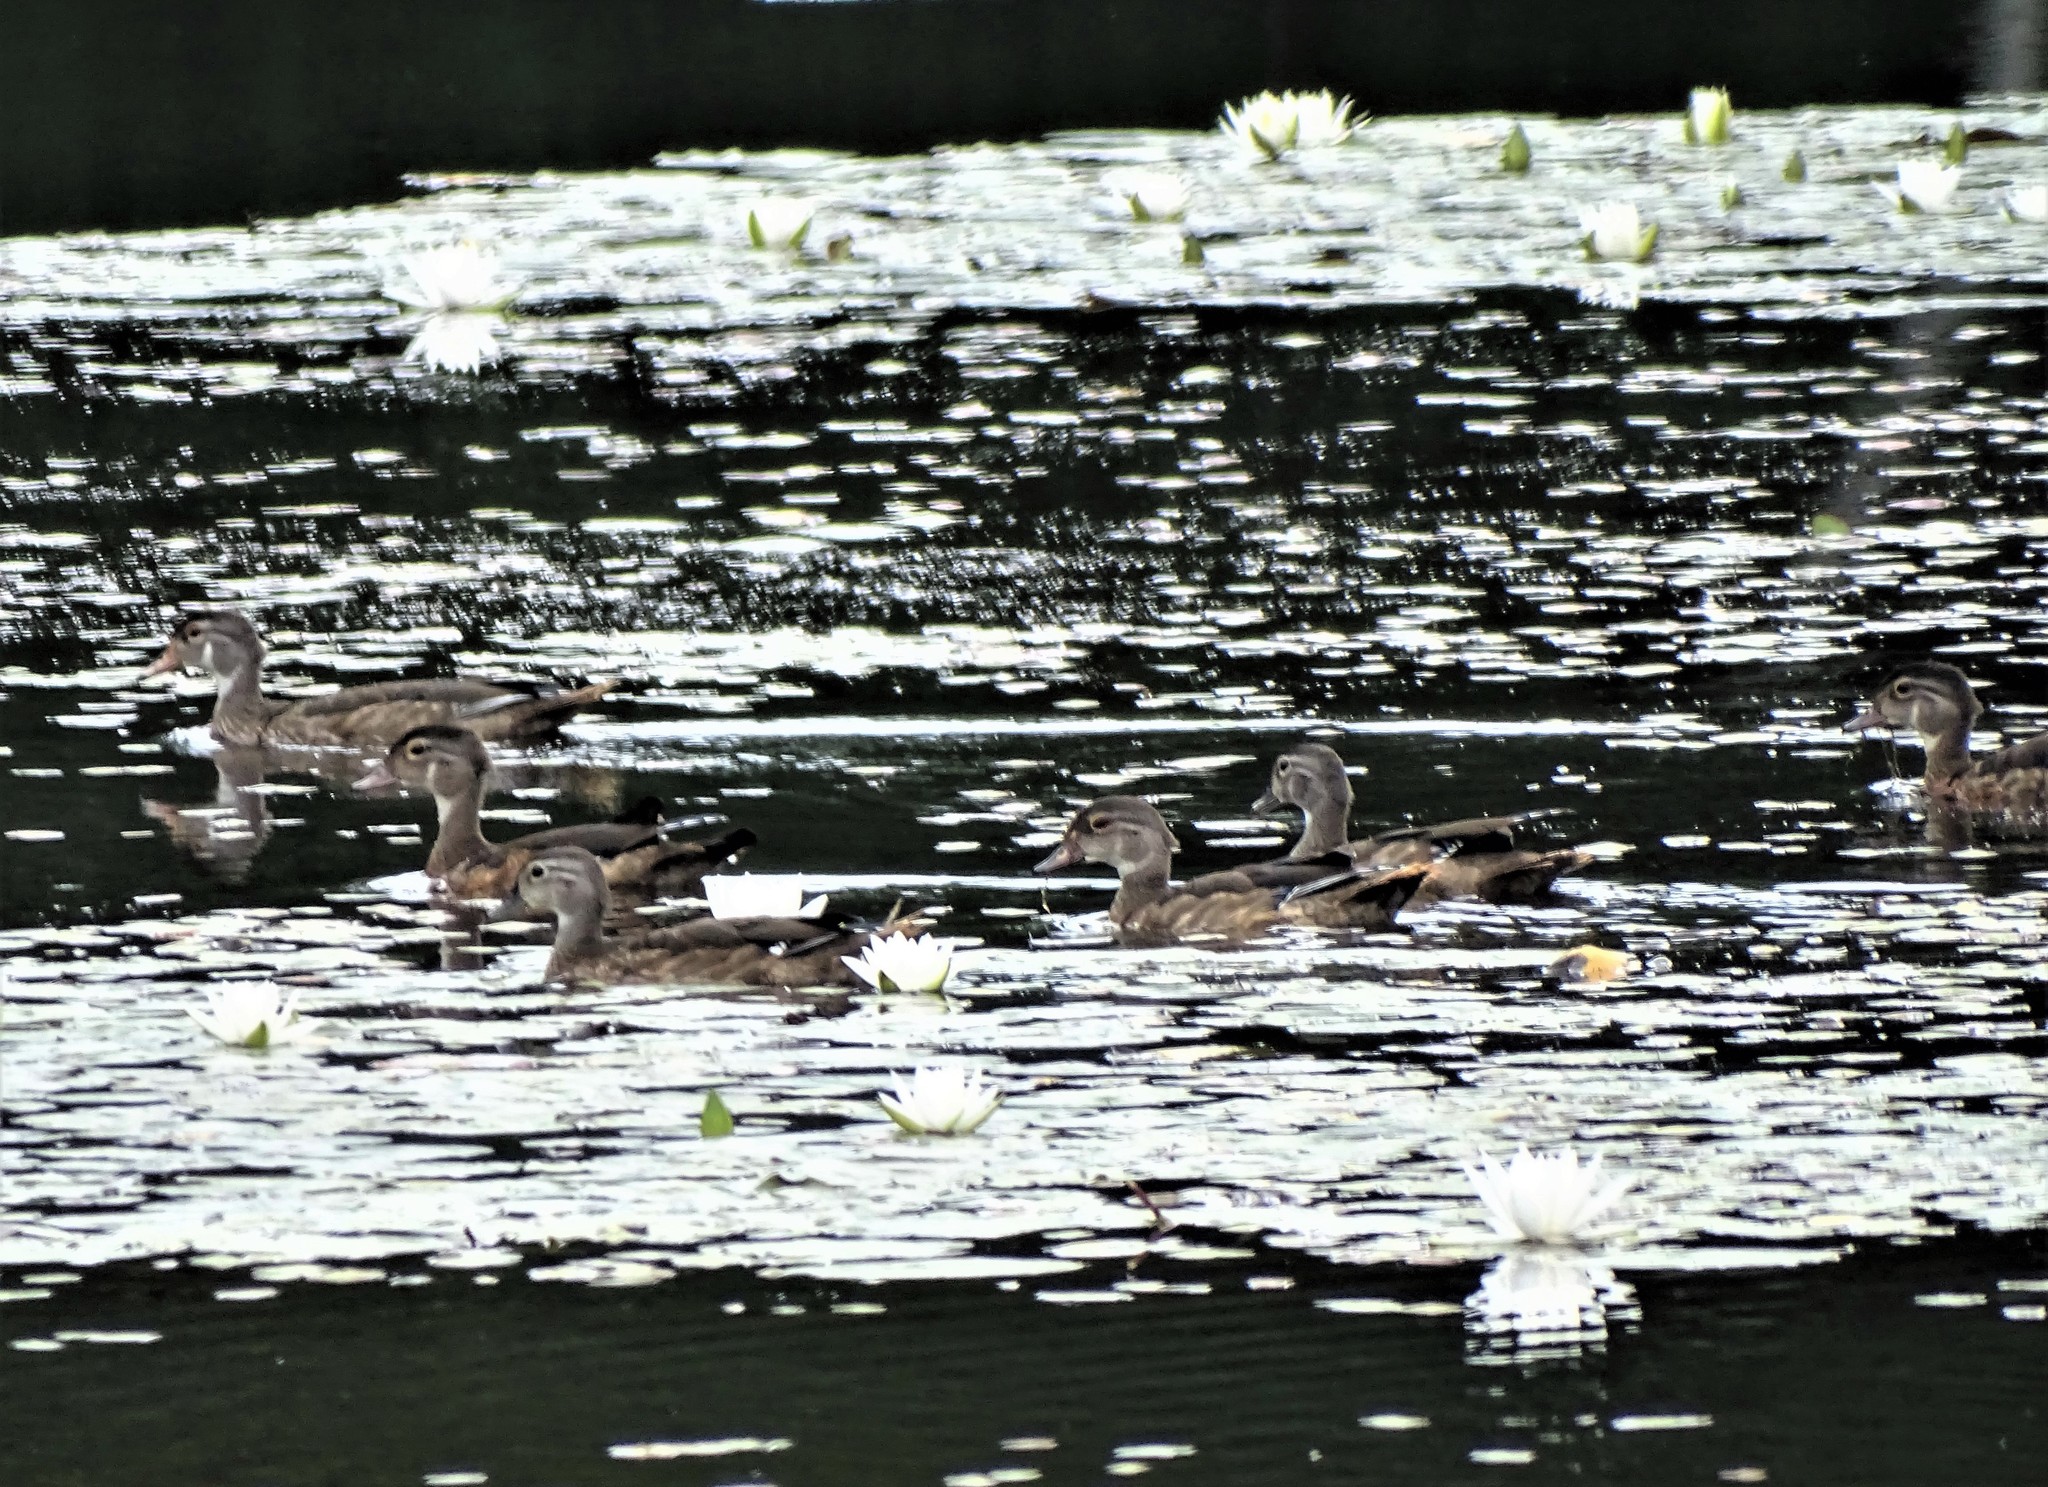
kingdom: Animalia
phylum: Chordata
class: Aves
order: Anseriformes
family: Anatidae
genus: Aix
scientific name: Aix sponsa
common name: Wood duck
